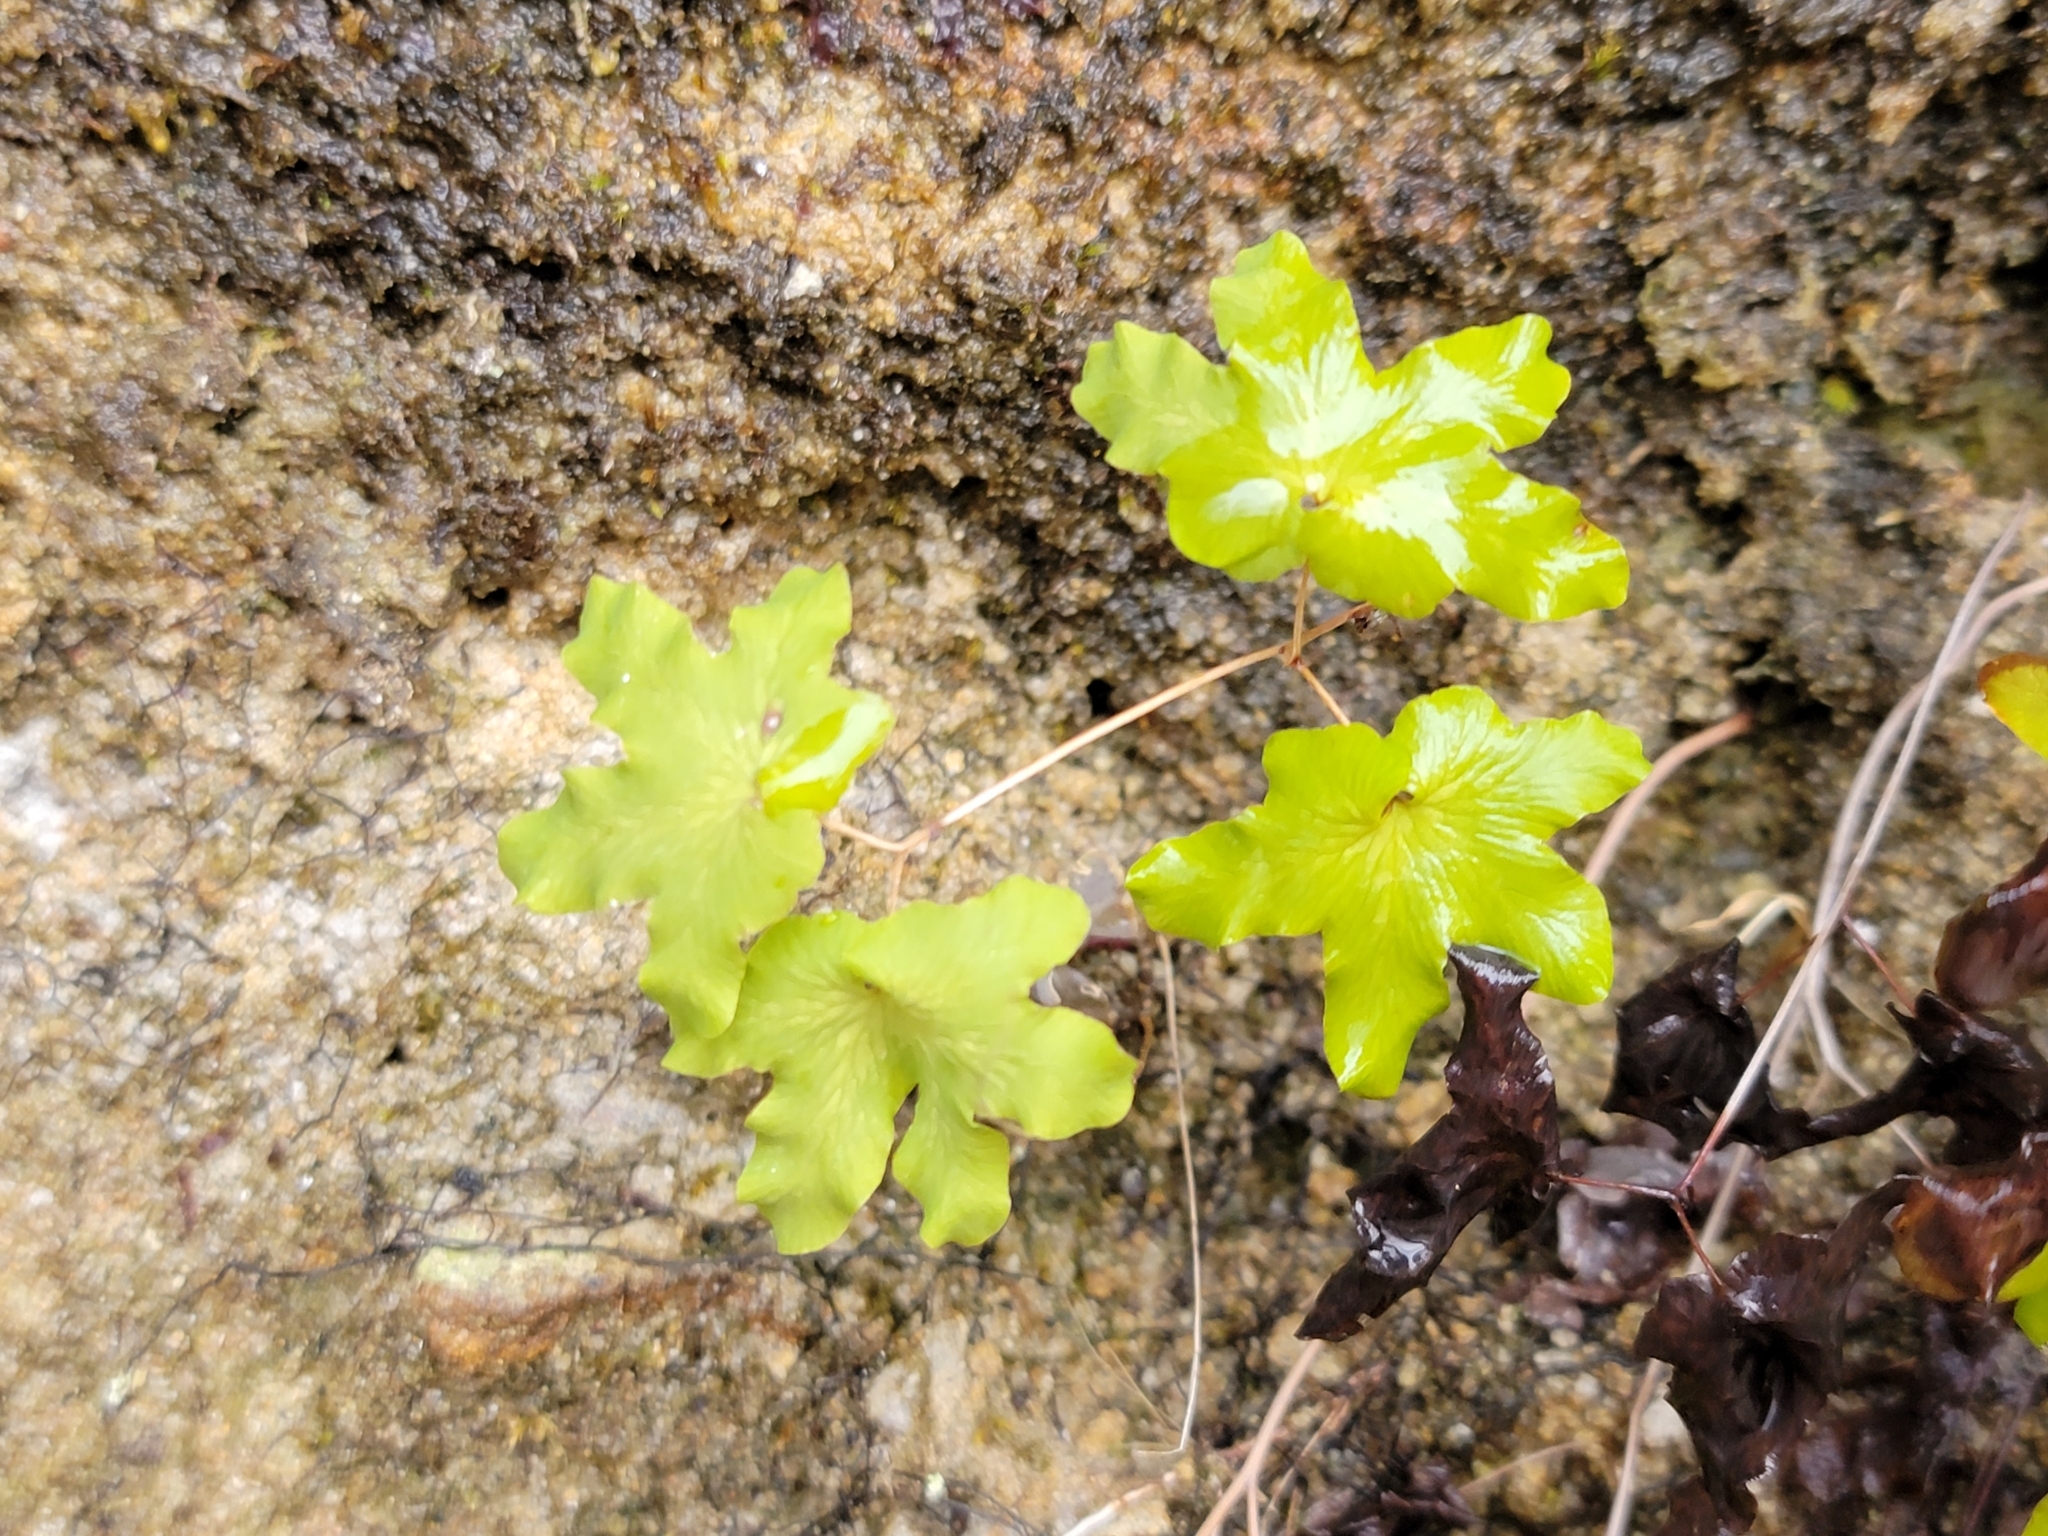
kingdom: Plantae
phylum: Tracheophyta
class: Polypodiopsida
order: Schizaeales
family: Lygodiaceae
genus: Lygodium
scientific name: Lygodium palmatum
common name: American climbing fern
